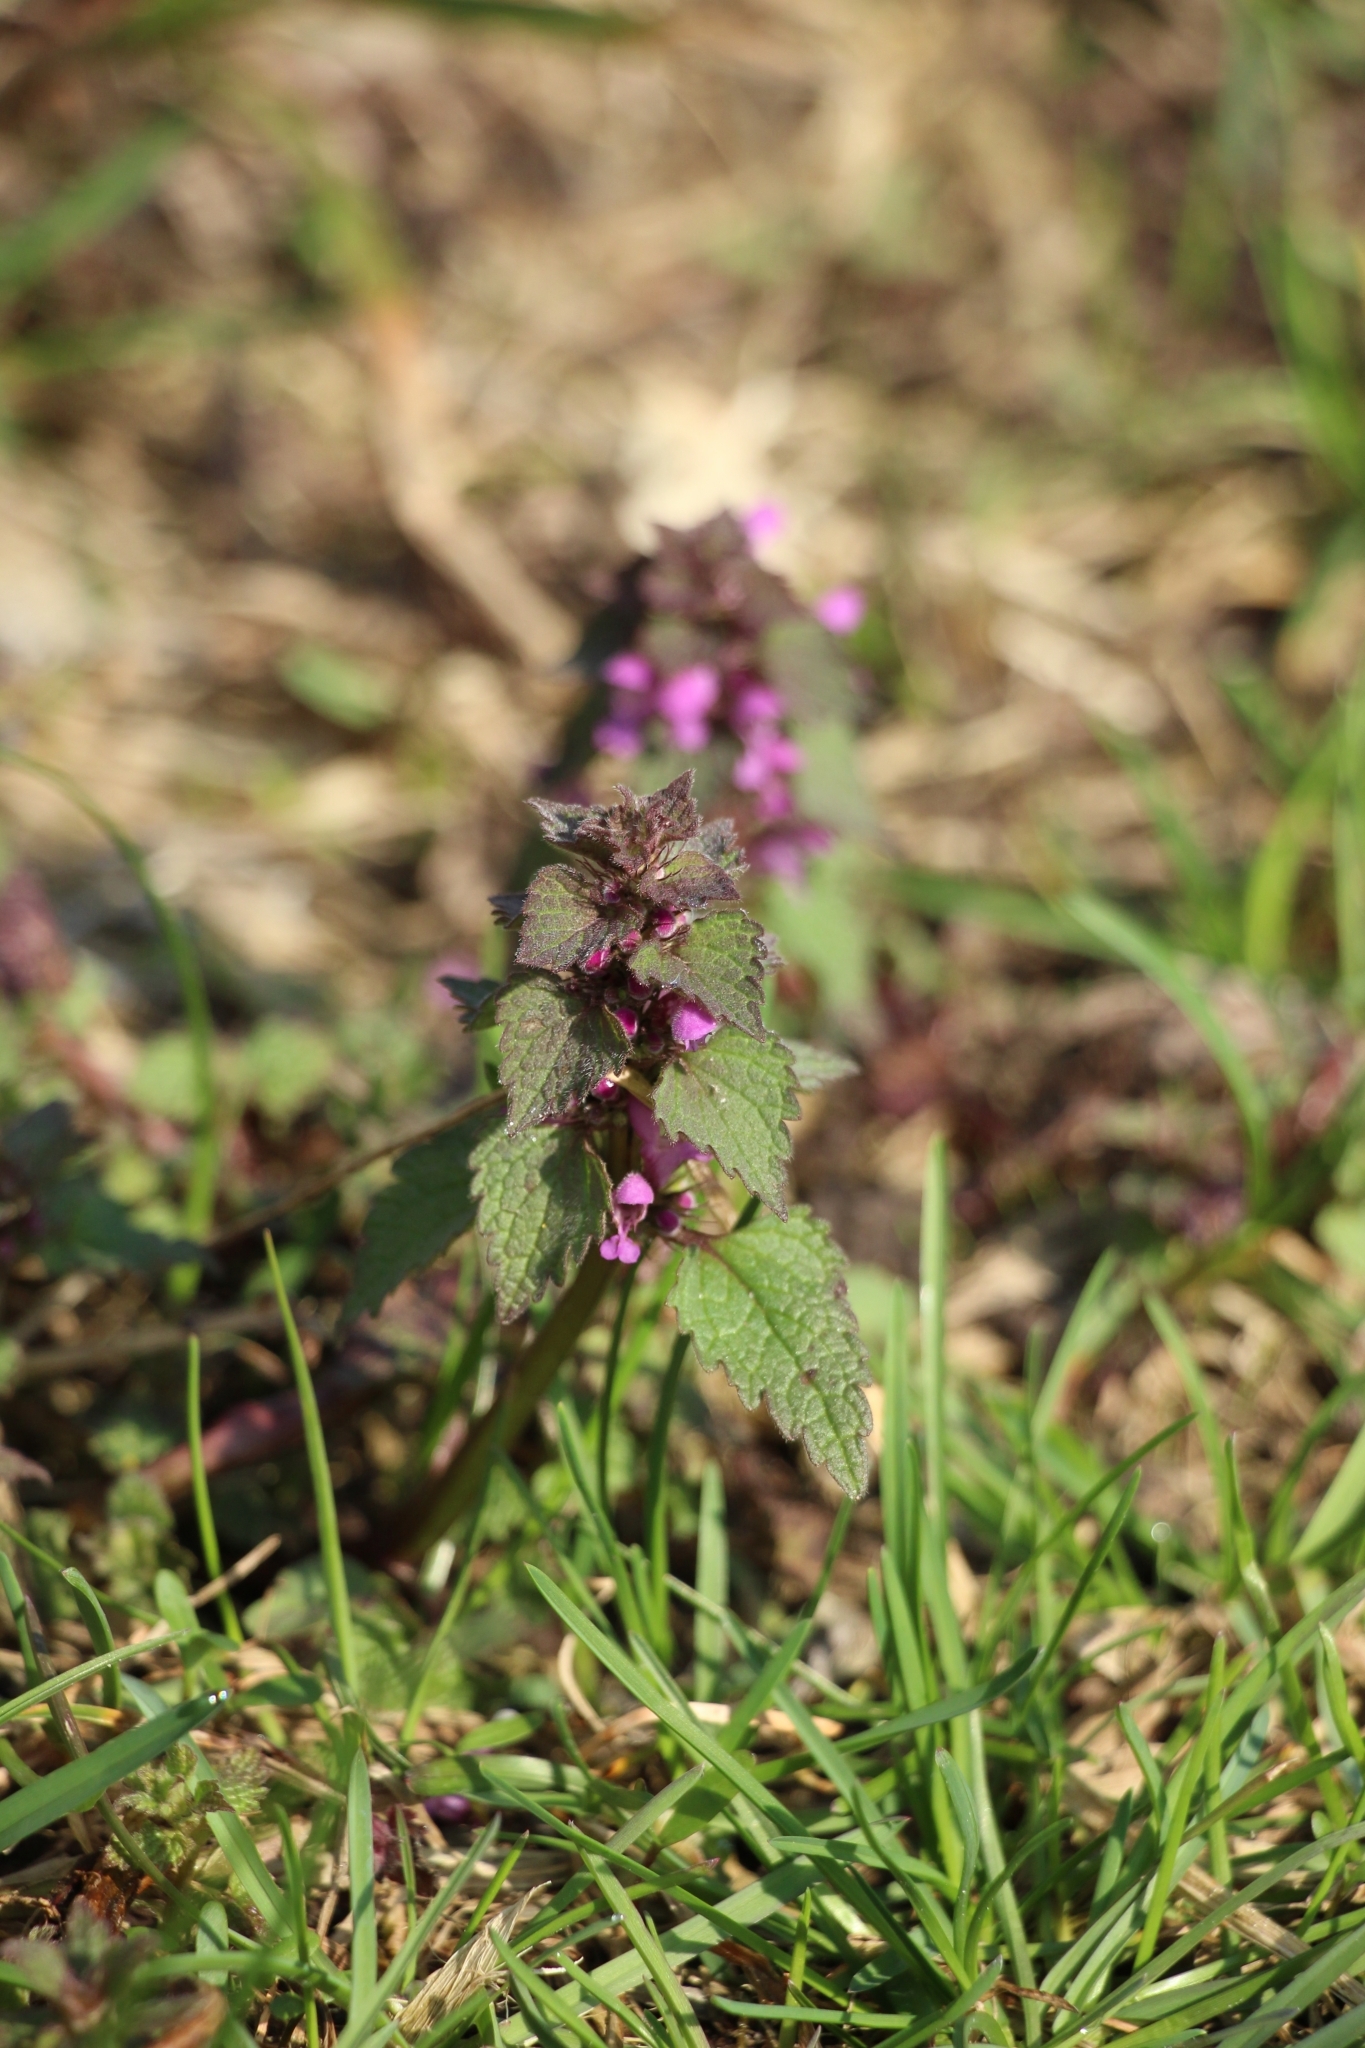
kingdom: Plantae
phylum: Tracheophyta
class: Magnoliopsida
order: Lamiales
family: Lamiaceae
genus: Lamium
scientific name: Lamium purpureum
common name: Red dead-nettle
